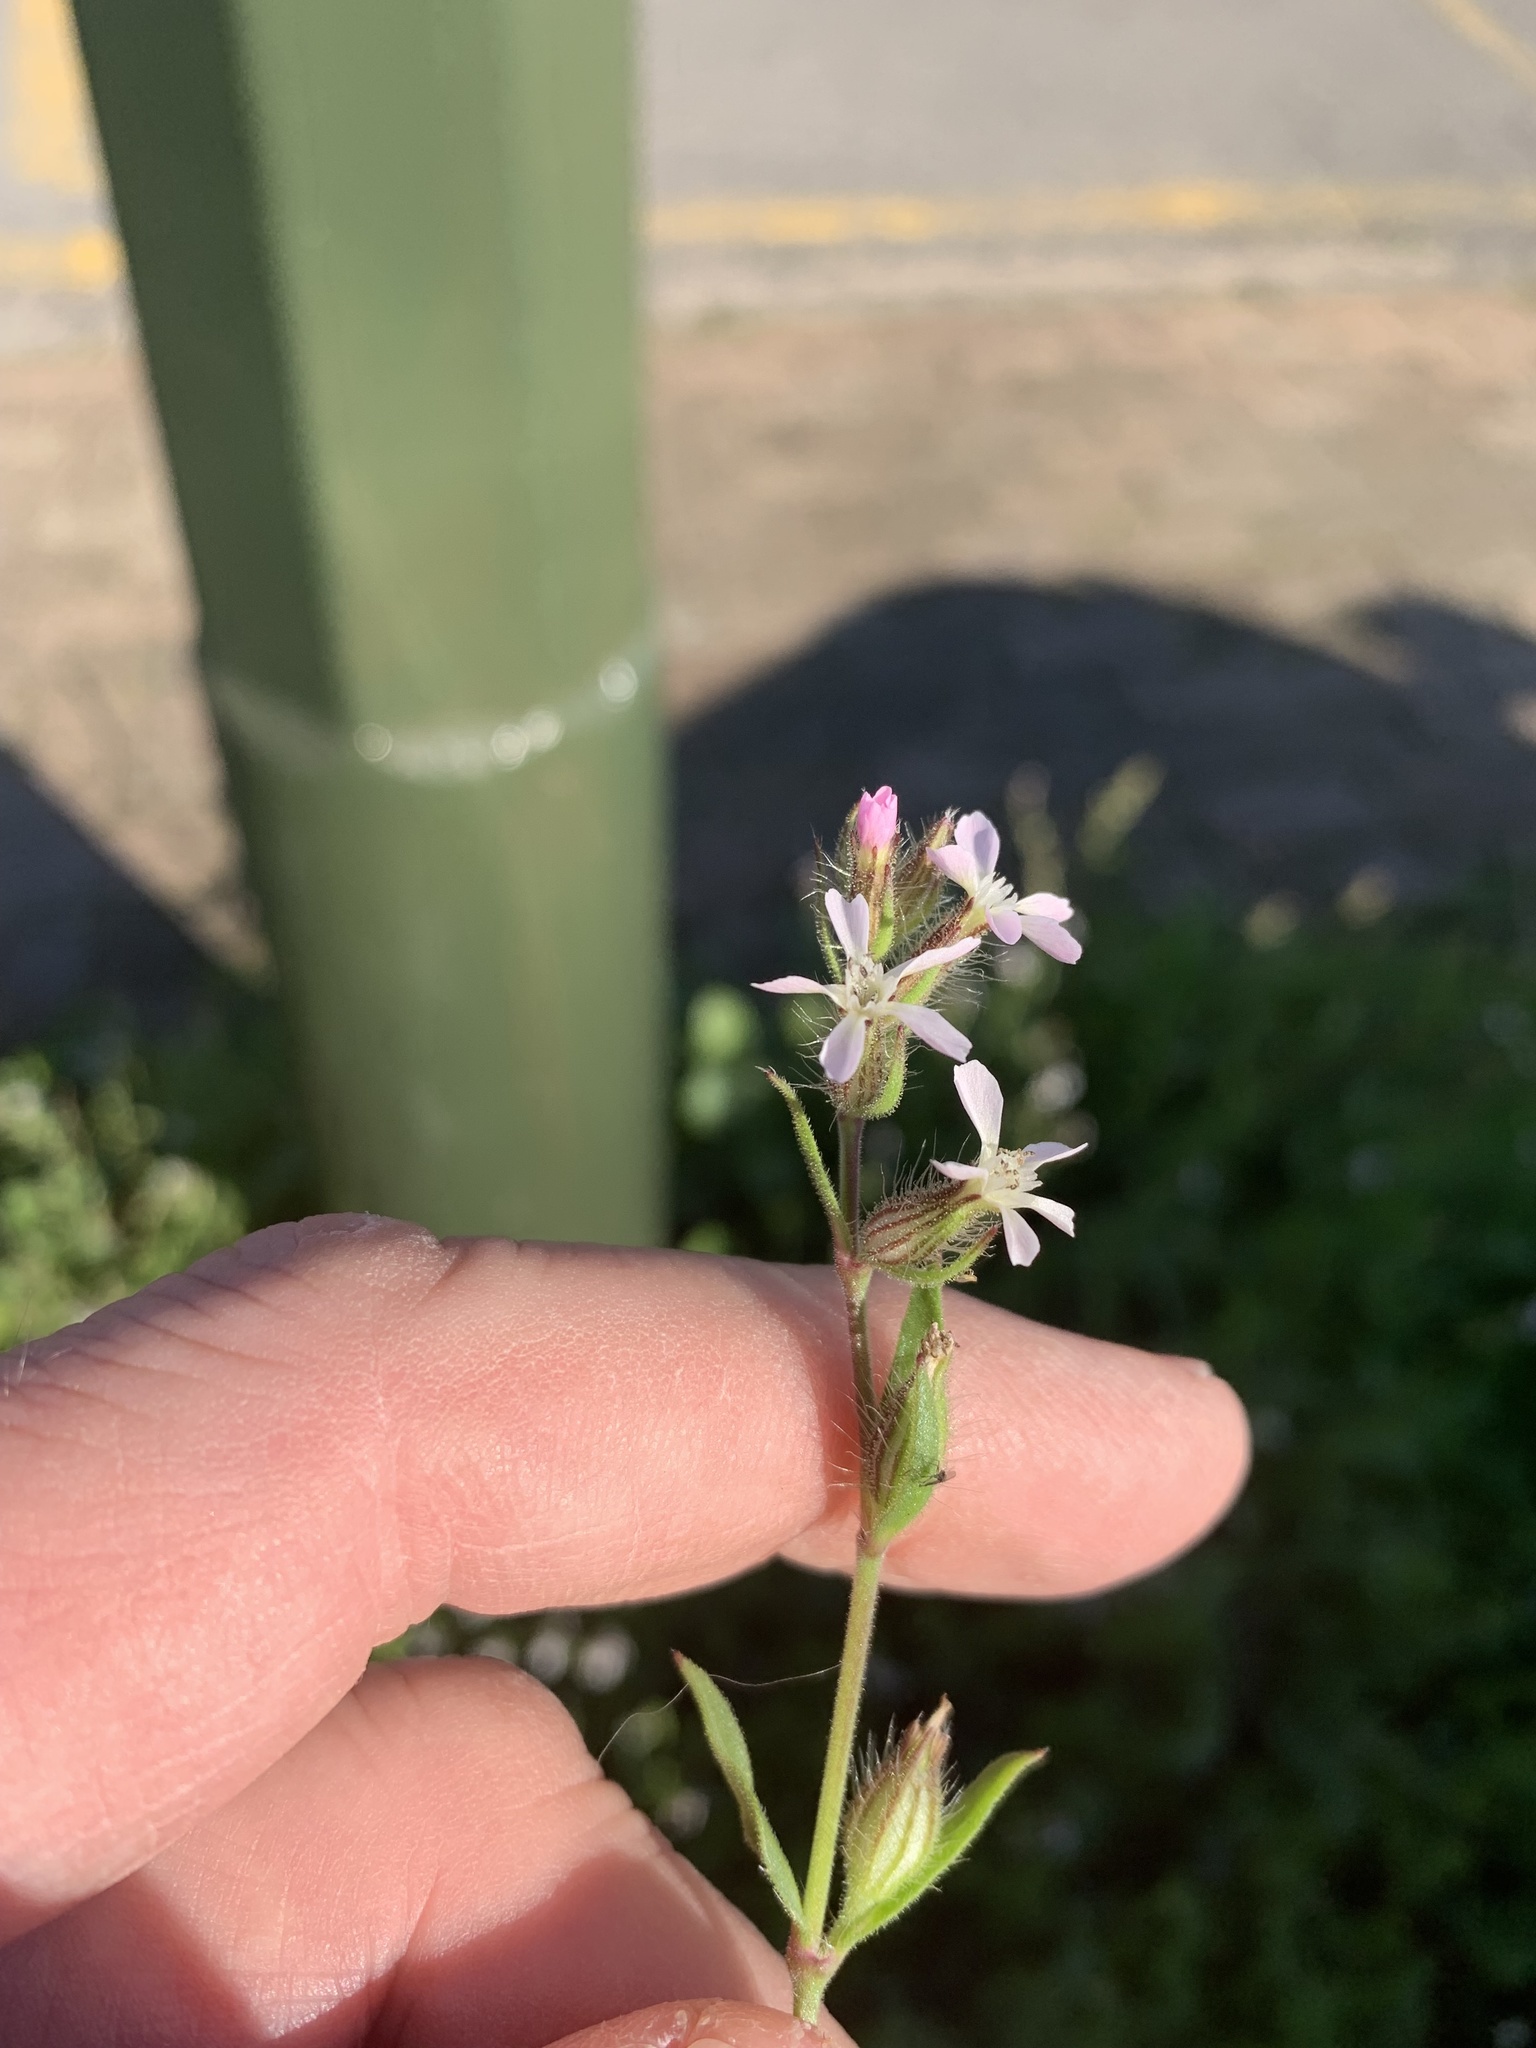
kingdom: Plantae
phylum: Tracheophyta
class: Magnoliopsida
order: Caryophyllales
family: Caryophyllaceae
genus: Silene
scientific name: Silene gallica
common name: Small-flowered catchfly
